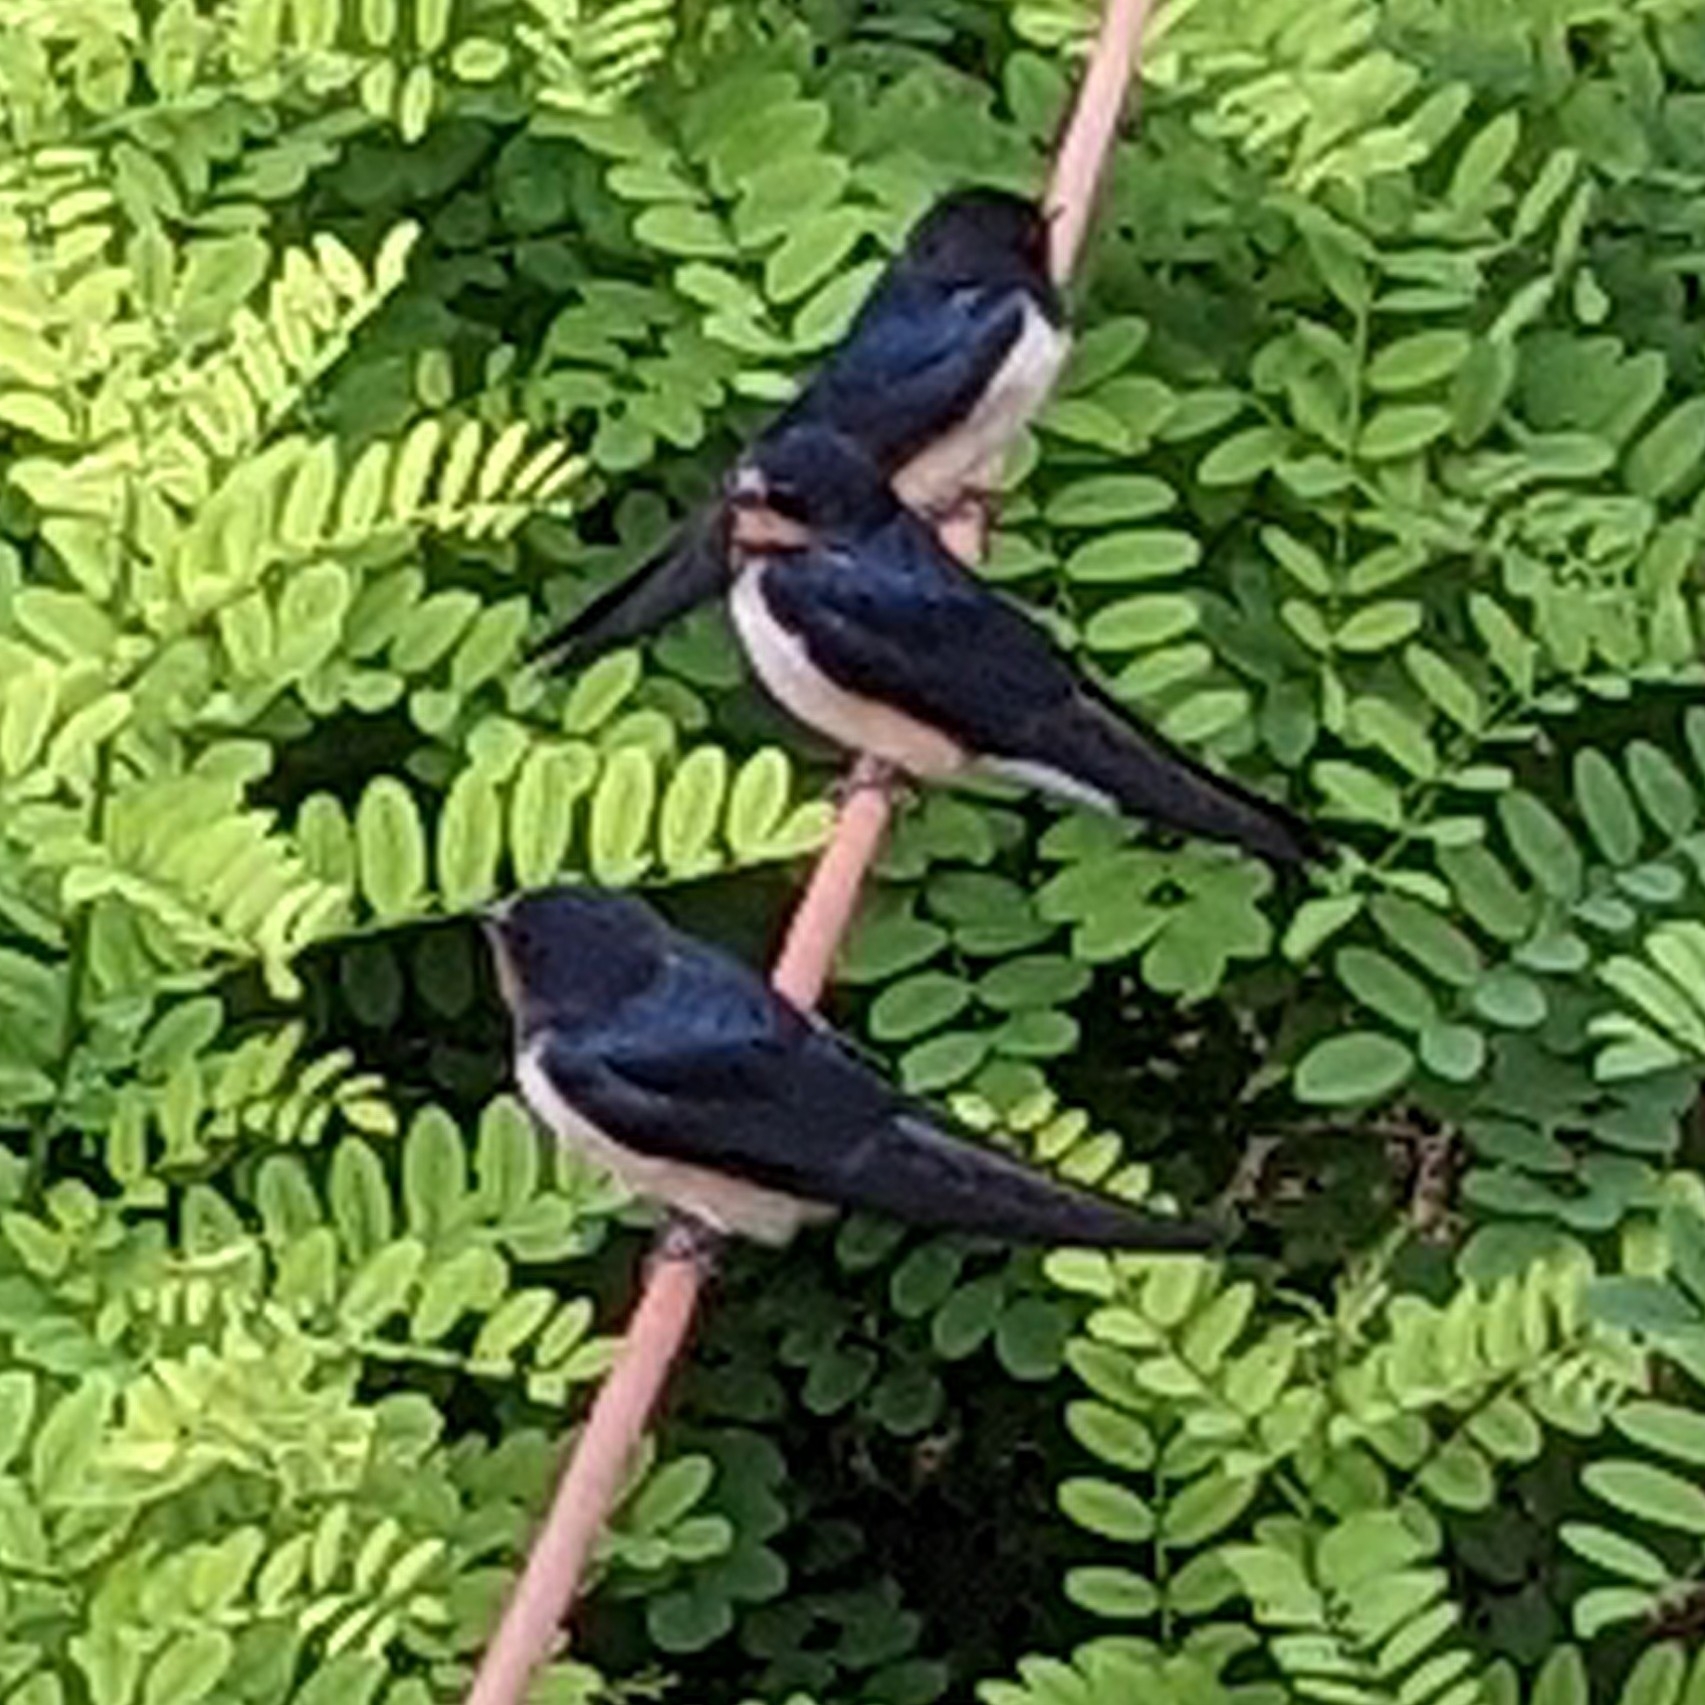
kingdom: Animalia
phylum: Chordata
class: Aves
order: Passeriformes
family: Hirundinidae
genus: Hirundo
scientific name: Hirundo rustica
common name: Barn swallow
